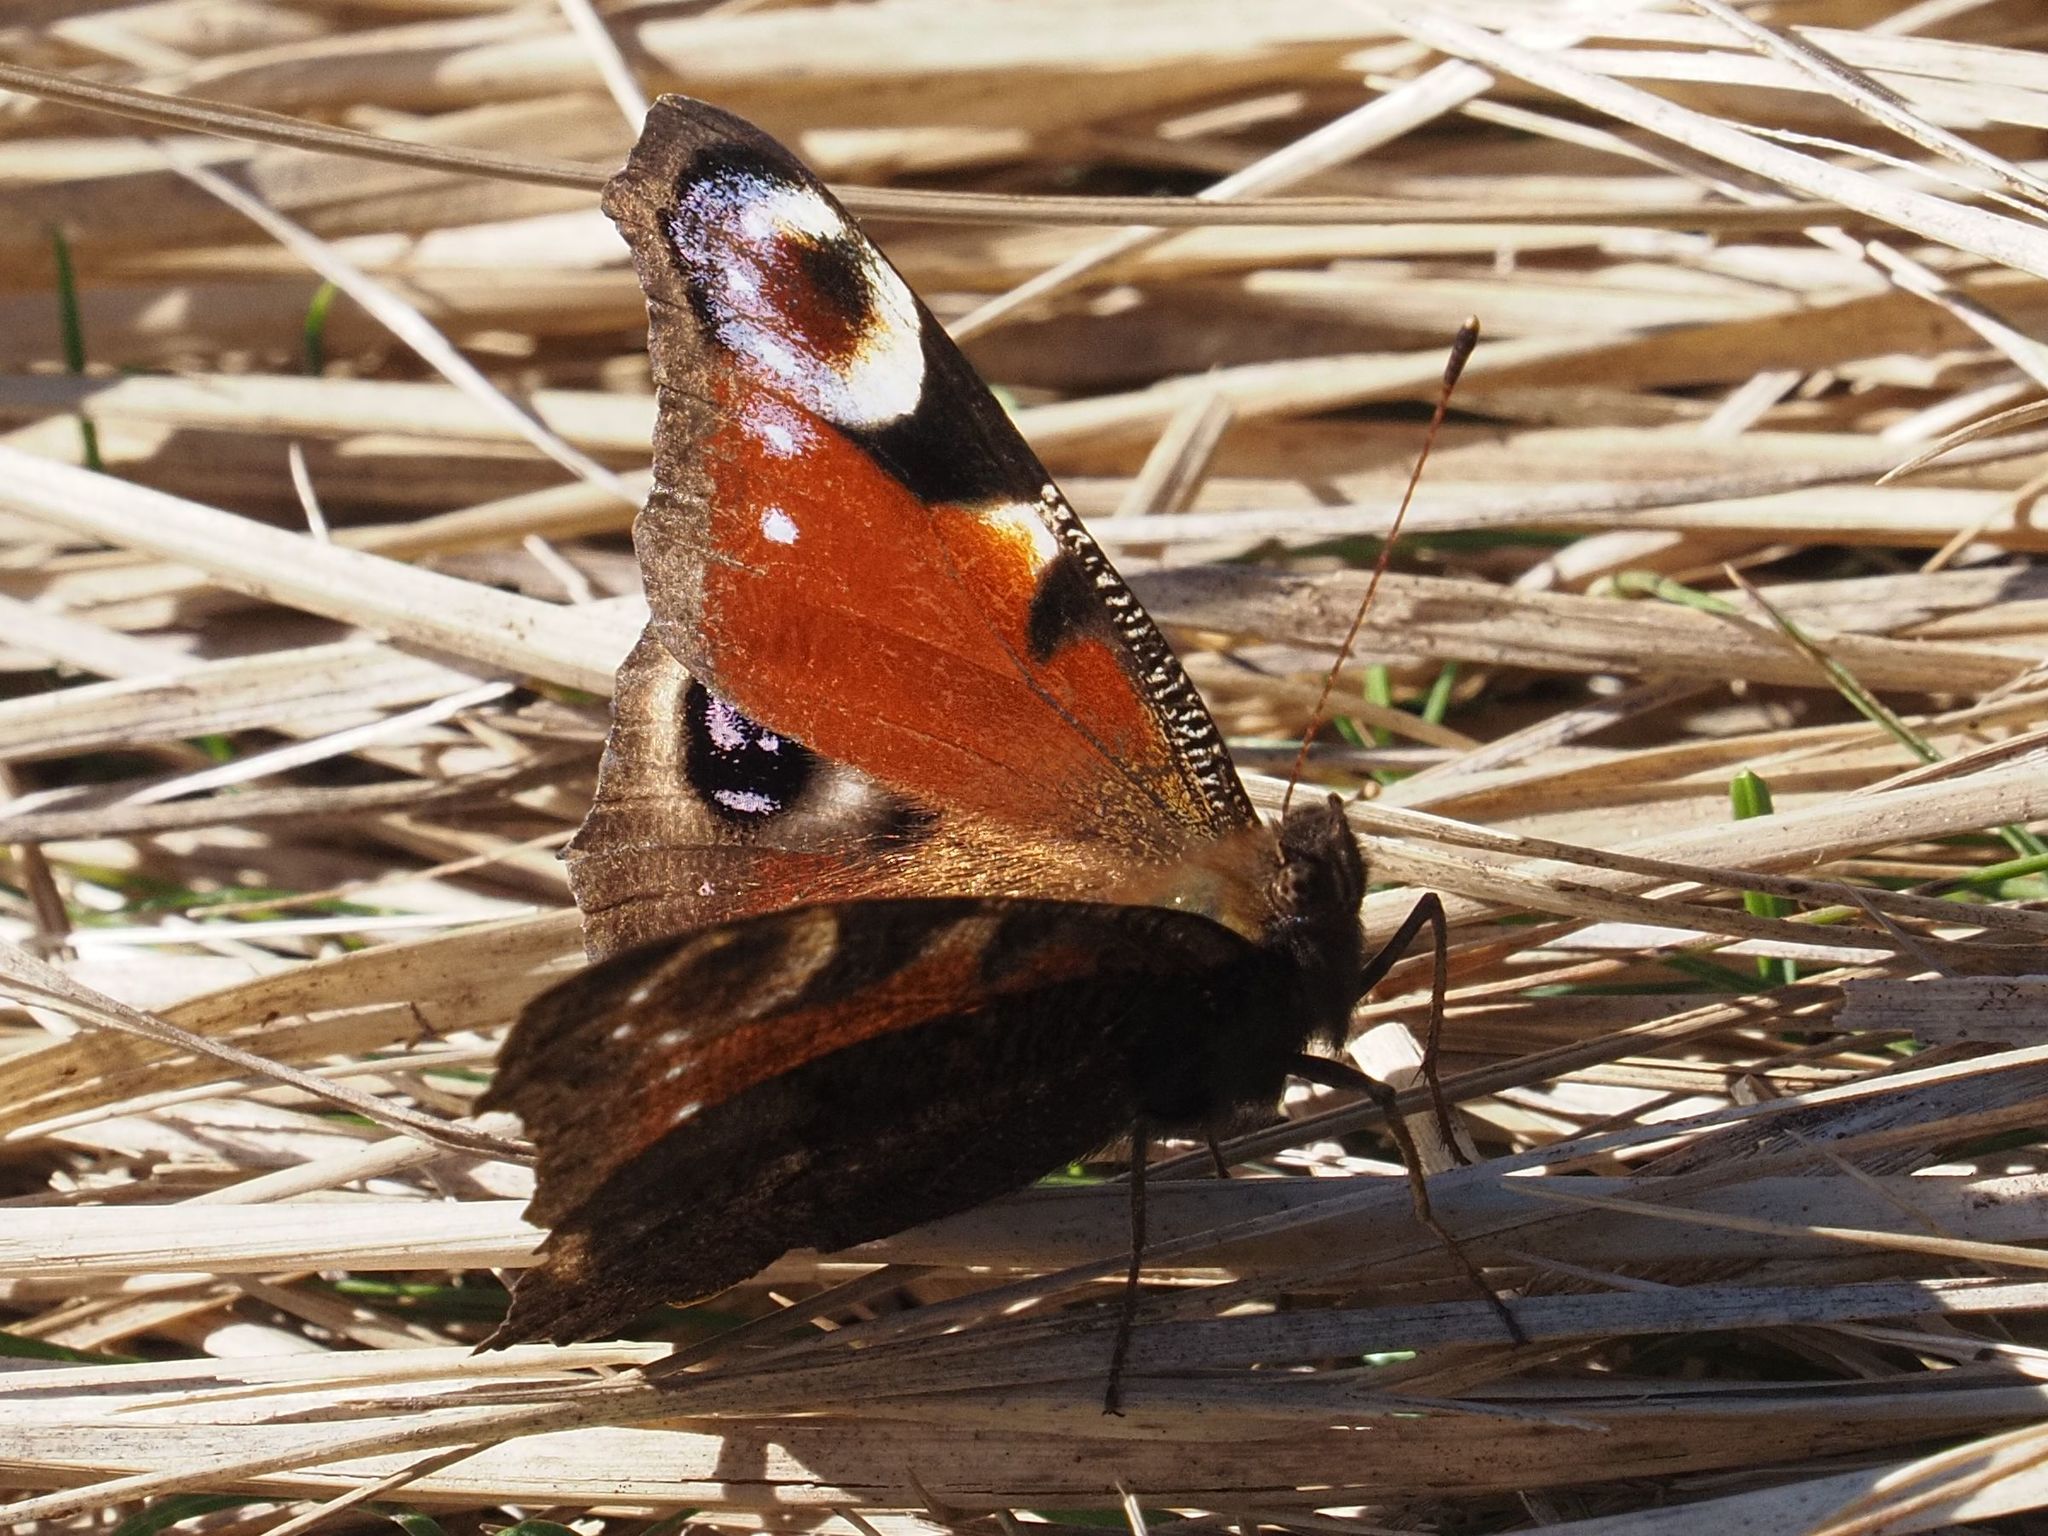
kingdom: Animalia
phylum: Arthropoda
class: Insecta
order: Lepidoptera
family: Nymphalidae
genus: Aglais
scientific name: Aglais io
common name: Peacock
